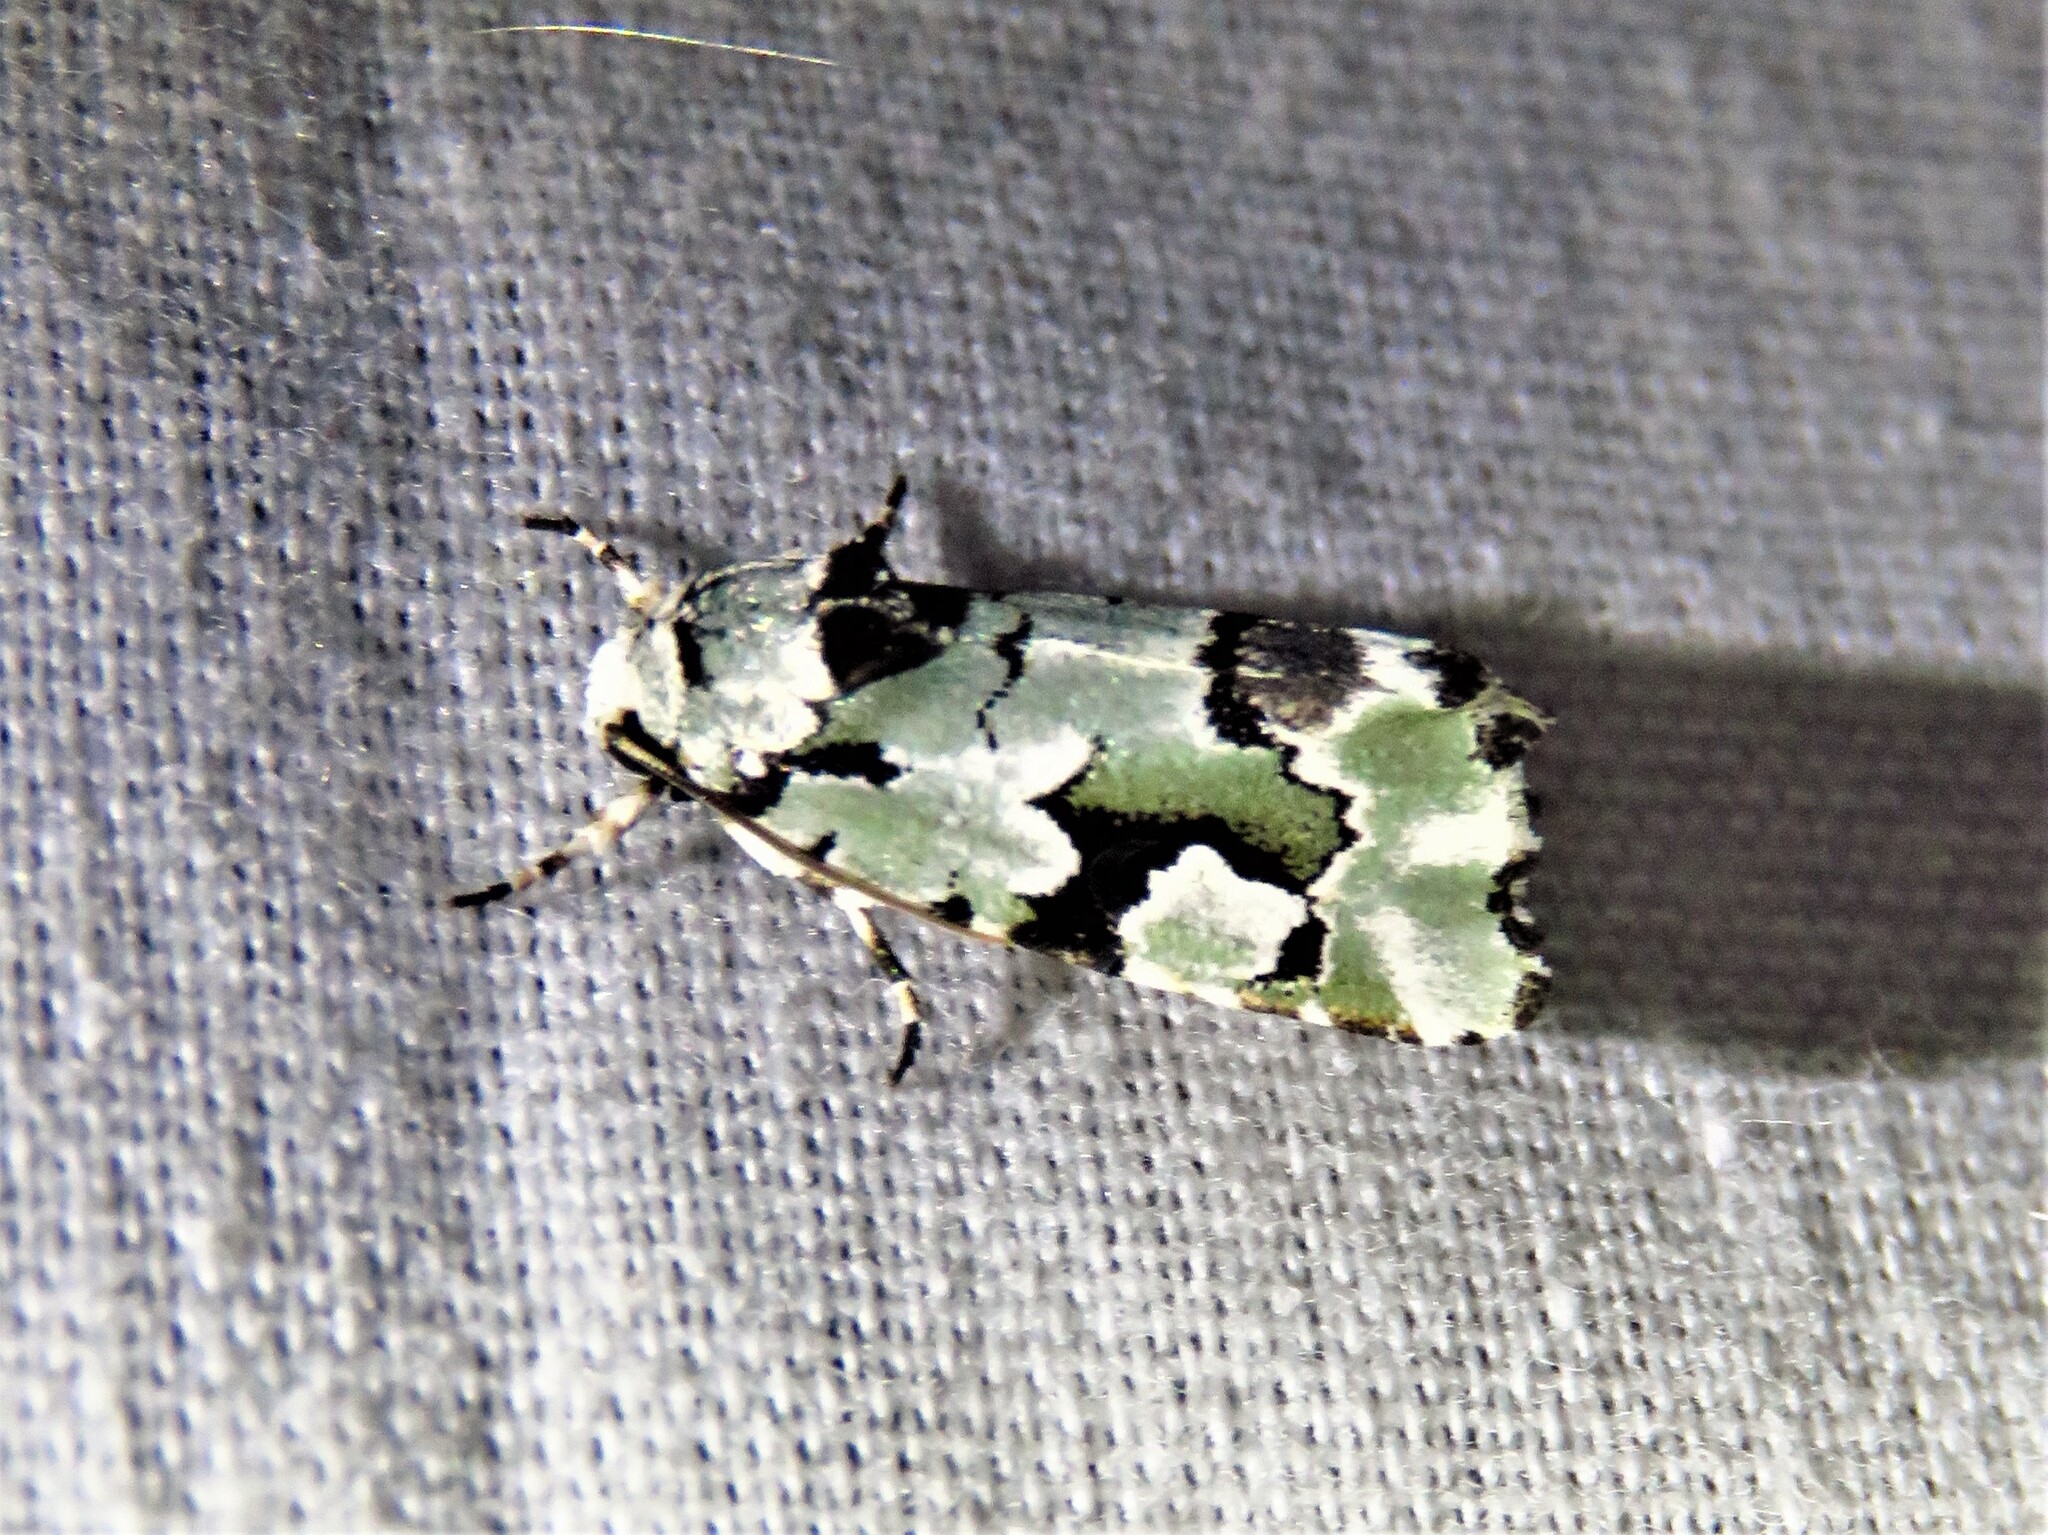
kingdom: Animalia
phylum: Arthropoda
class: Insecta
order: Lepidoptera
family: Noctuidae
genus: Emarginea
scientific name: Emarginea percara
